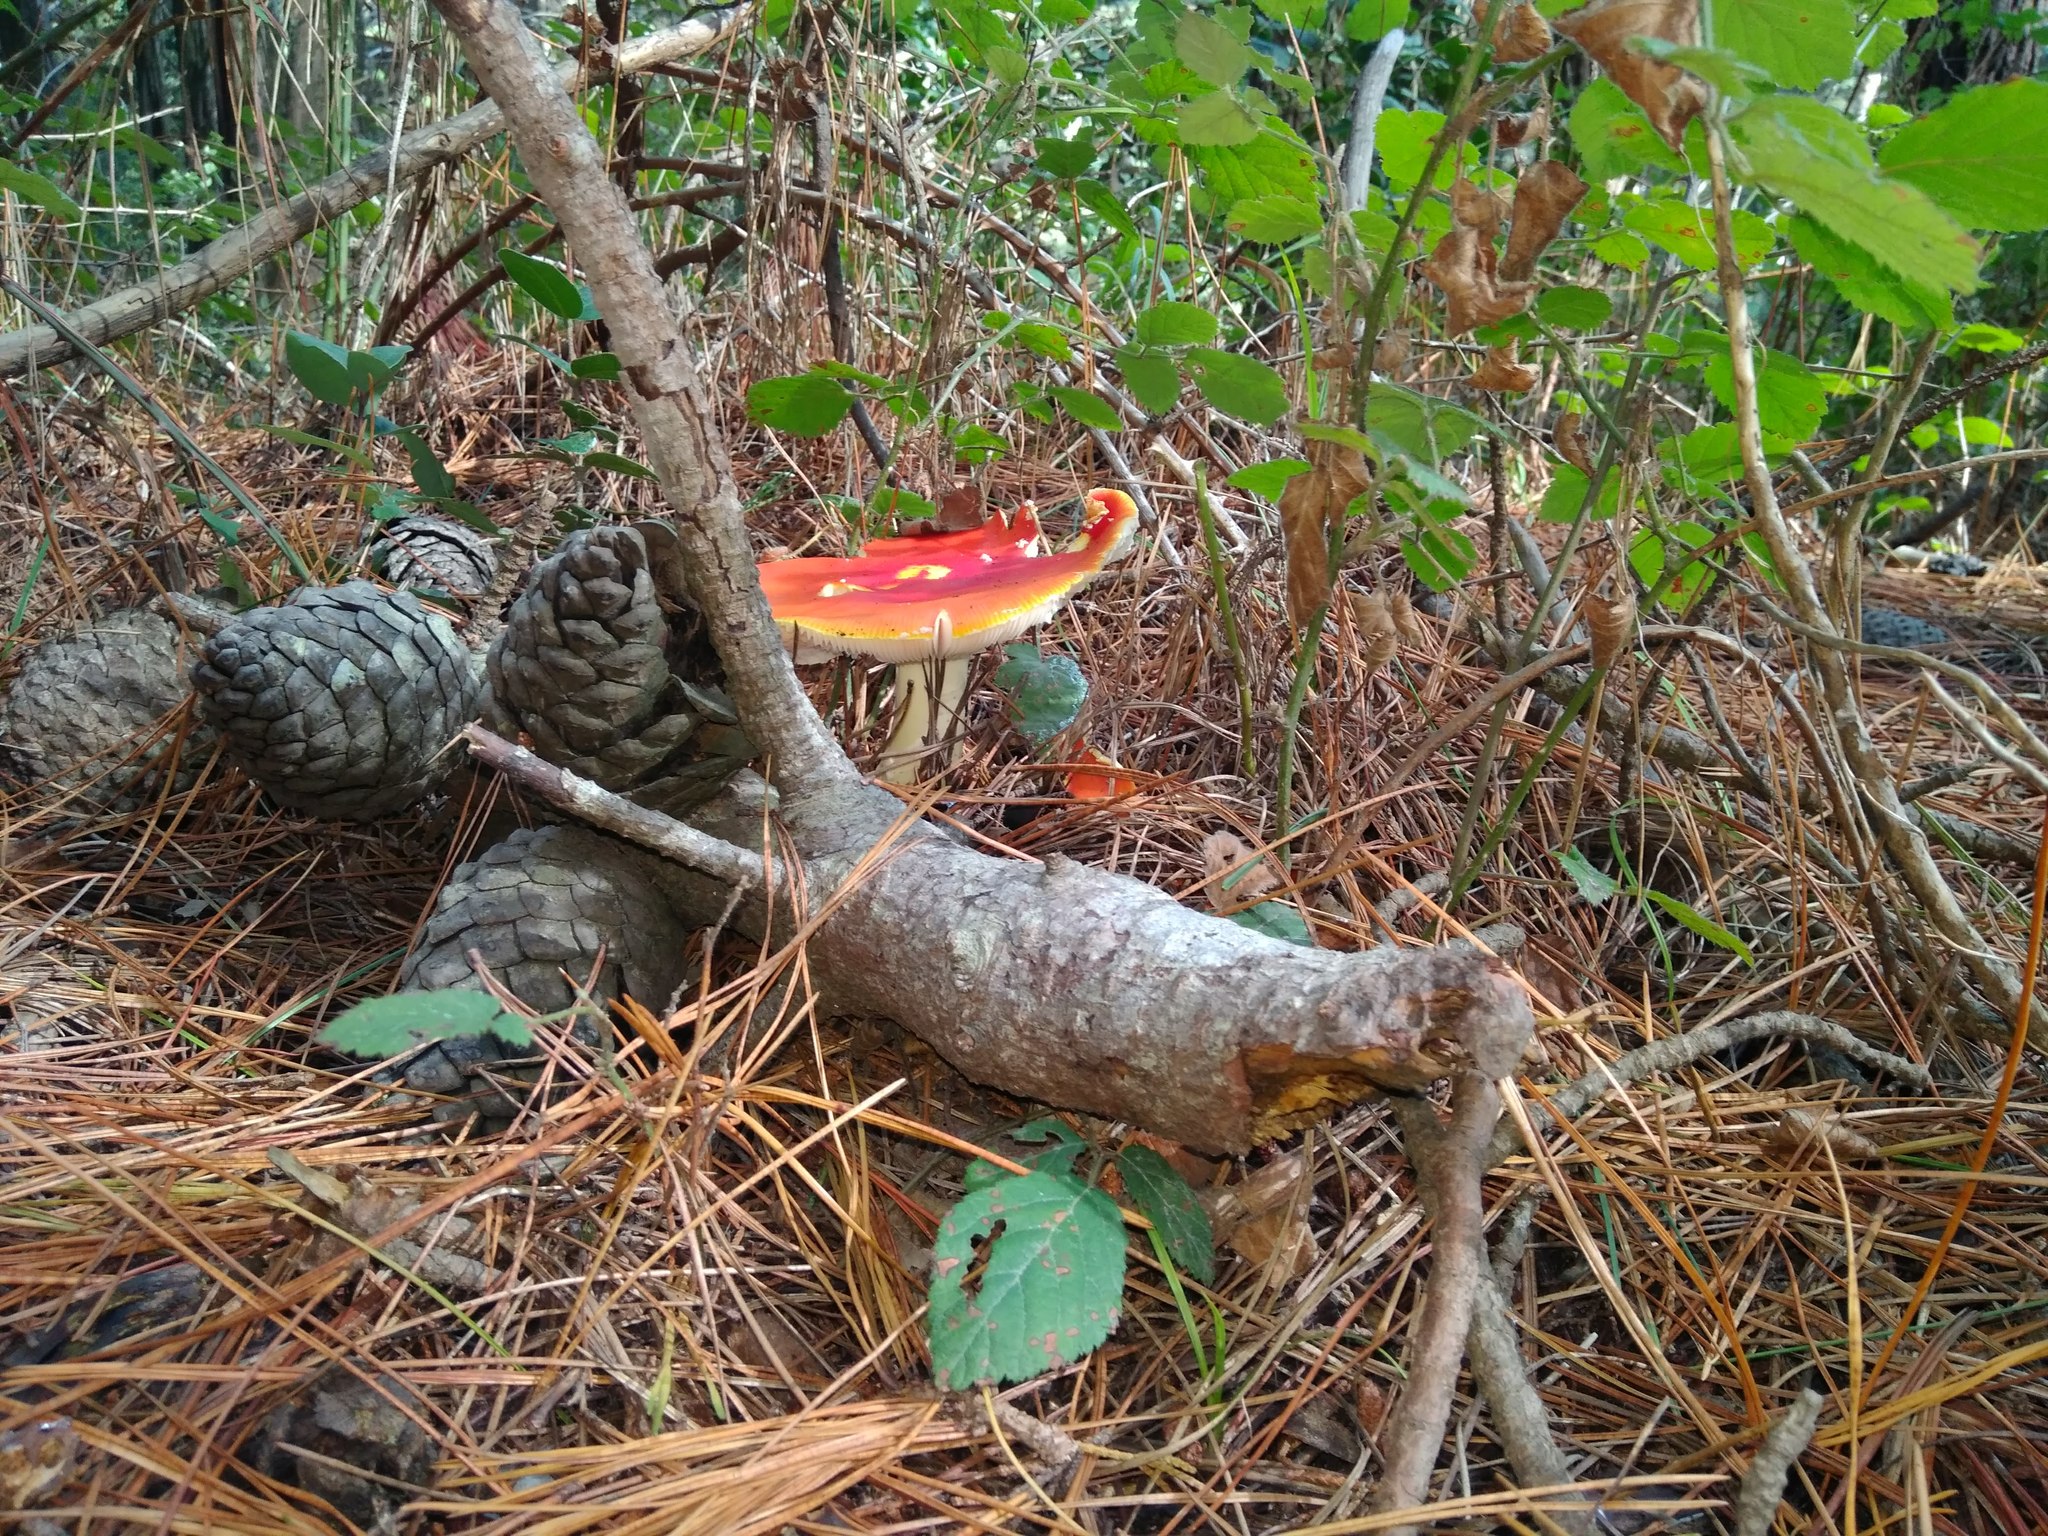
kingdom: Fungi
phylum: Basidiomycota
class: Agaricomycetes
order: Agaricales
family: Amanitaceae
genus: Amanita
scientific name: Amanita muscaria
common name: Fly agaric
